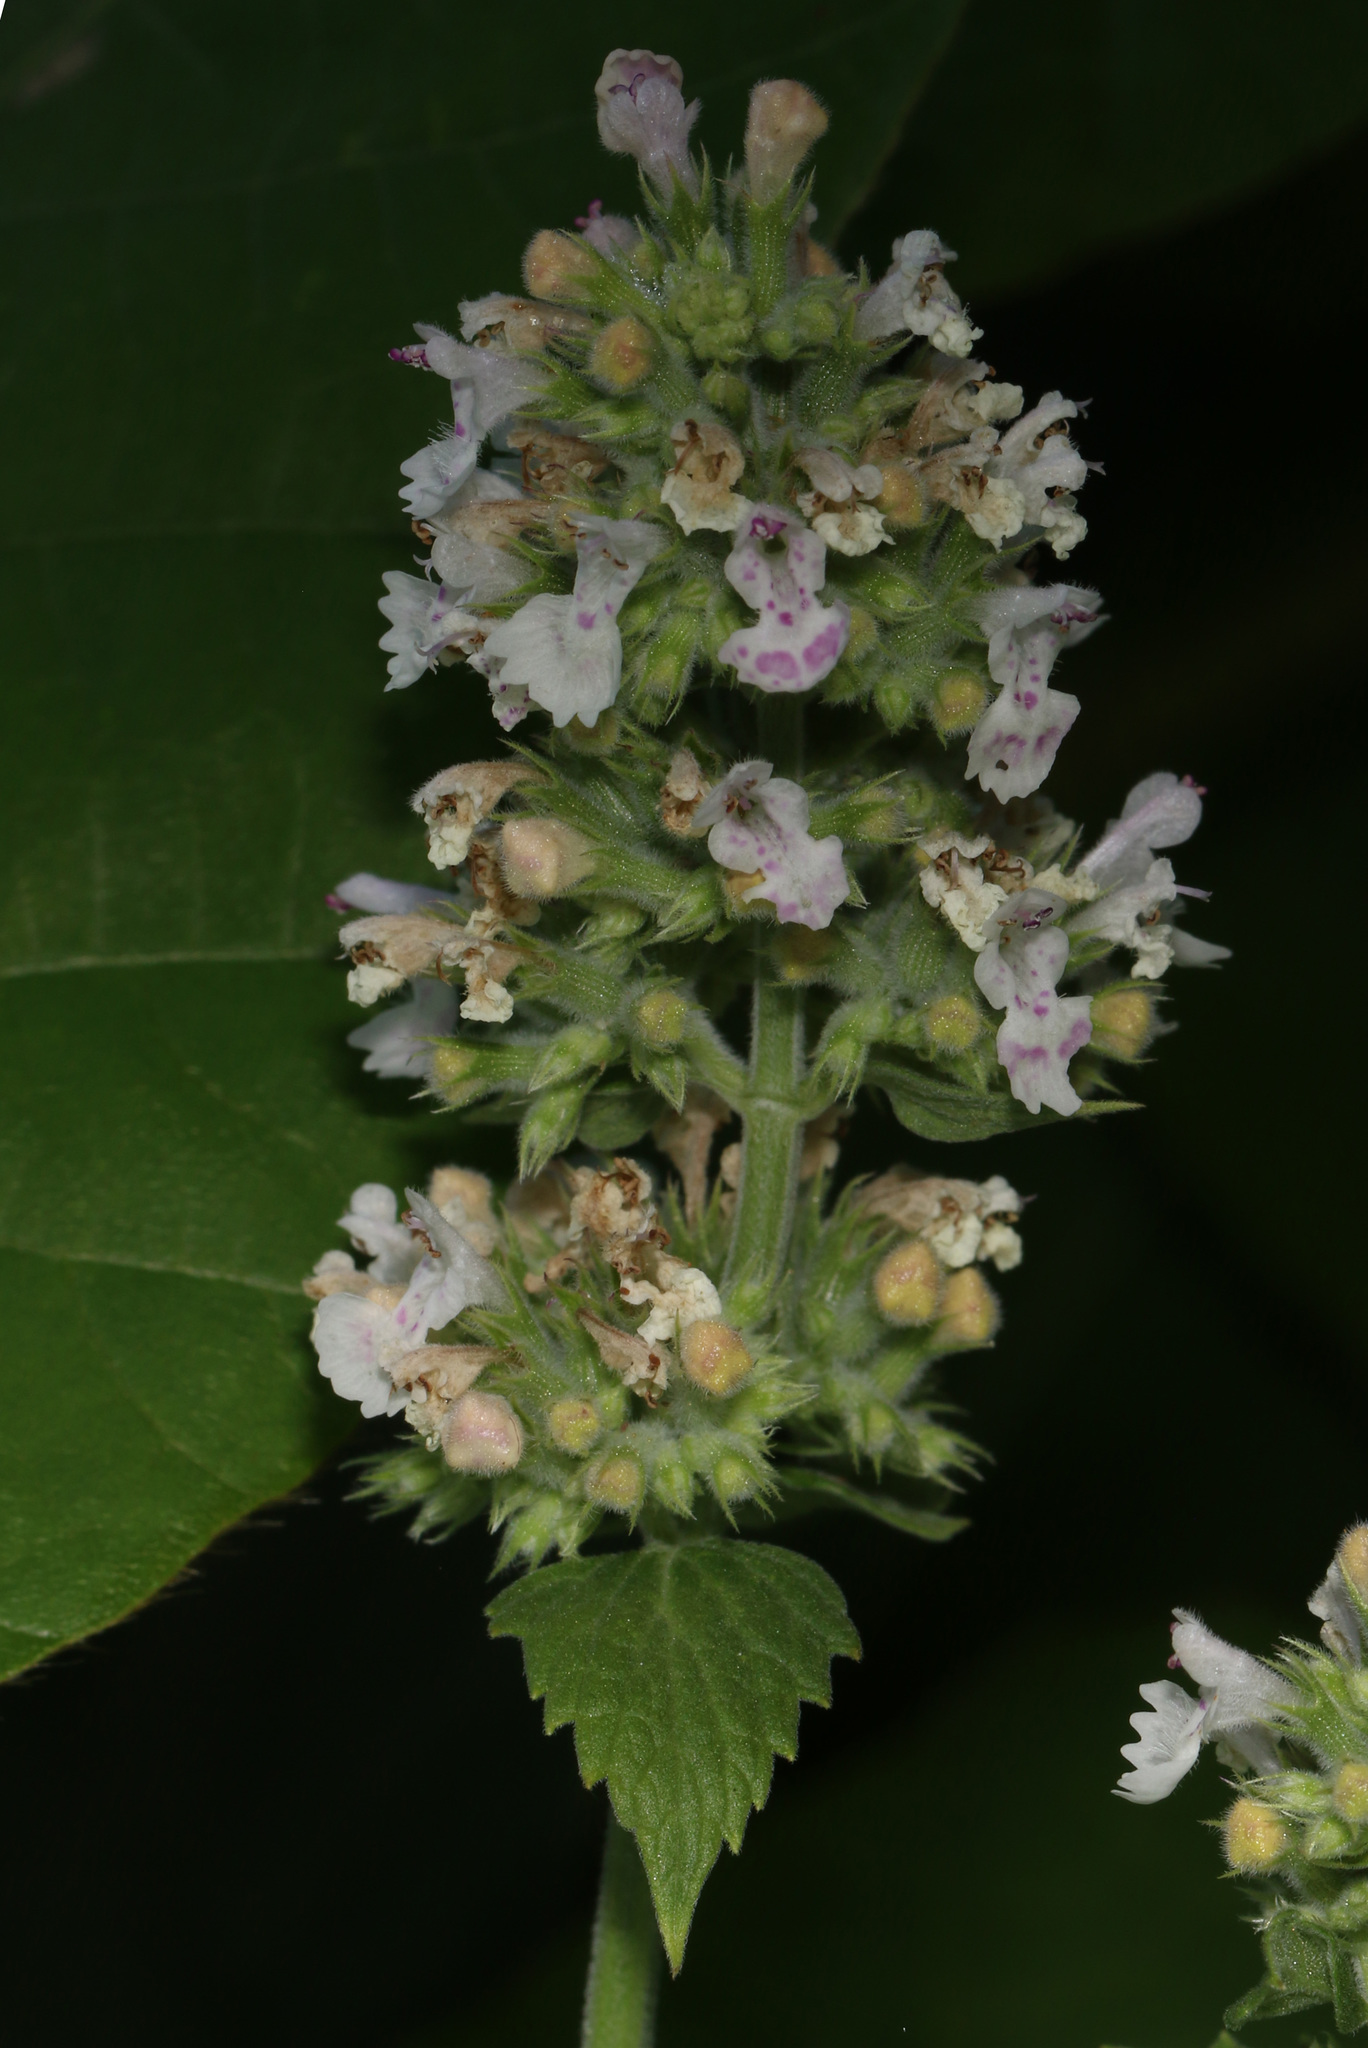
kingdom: Plantae
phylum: Tracheophyta
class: Magnoliopsida
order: Lamiales
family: Lamiaceae
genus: Nepeta
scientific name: Nepeta cataria
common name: Catnip
